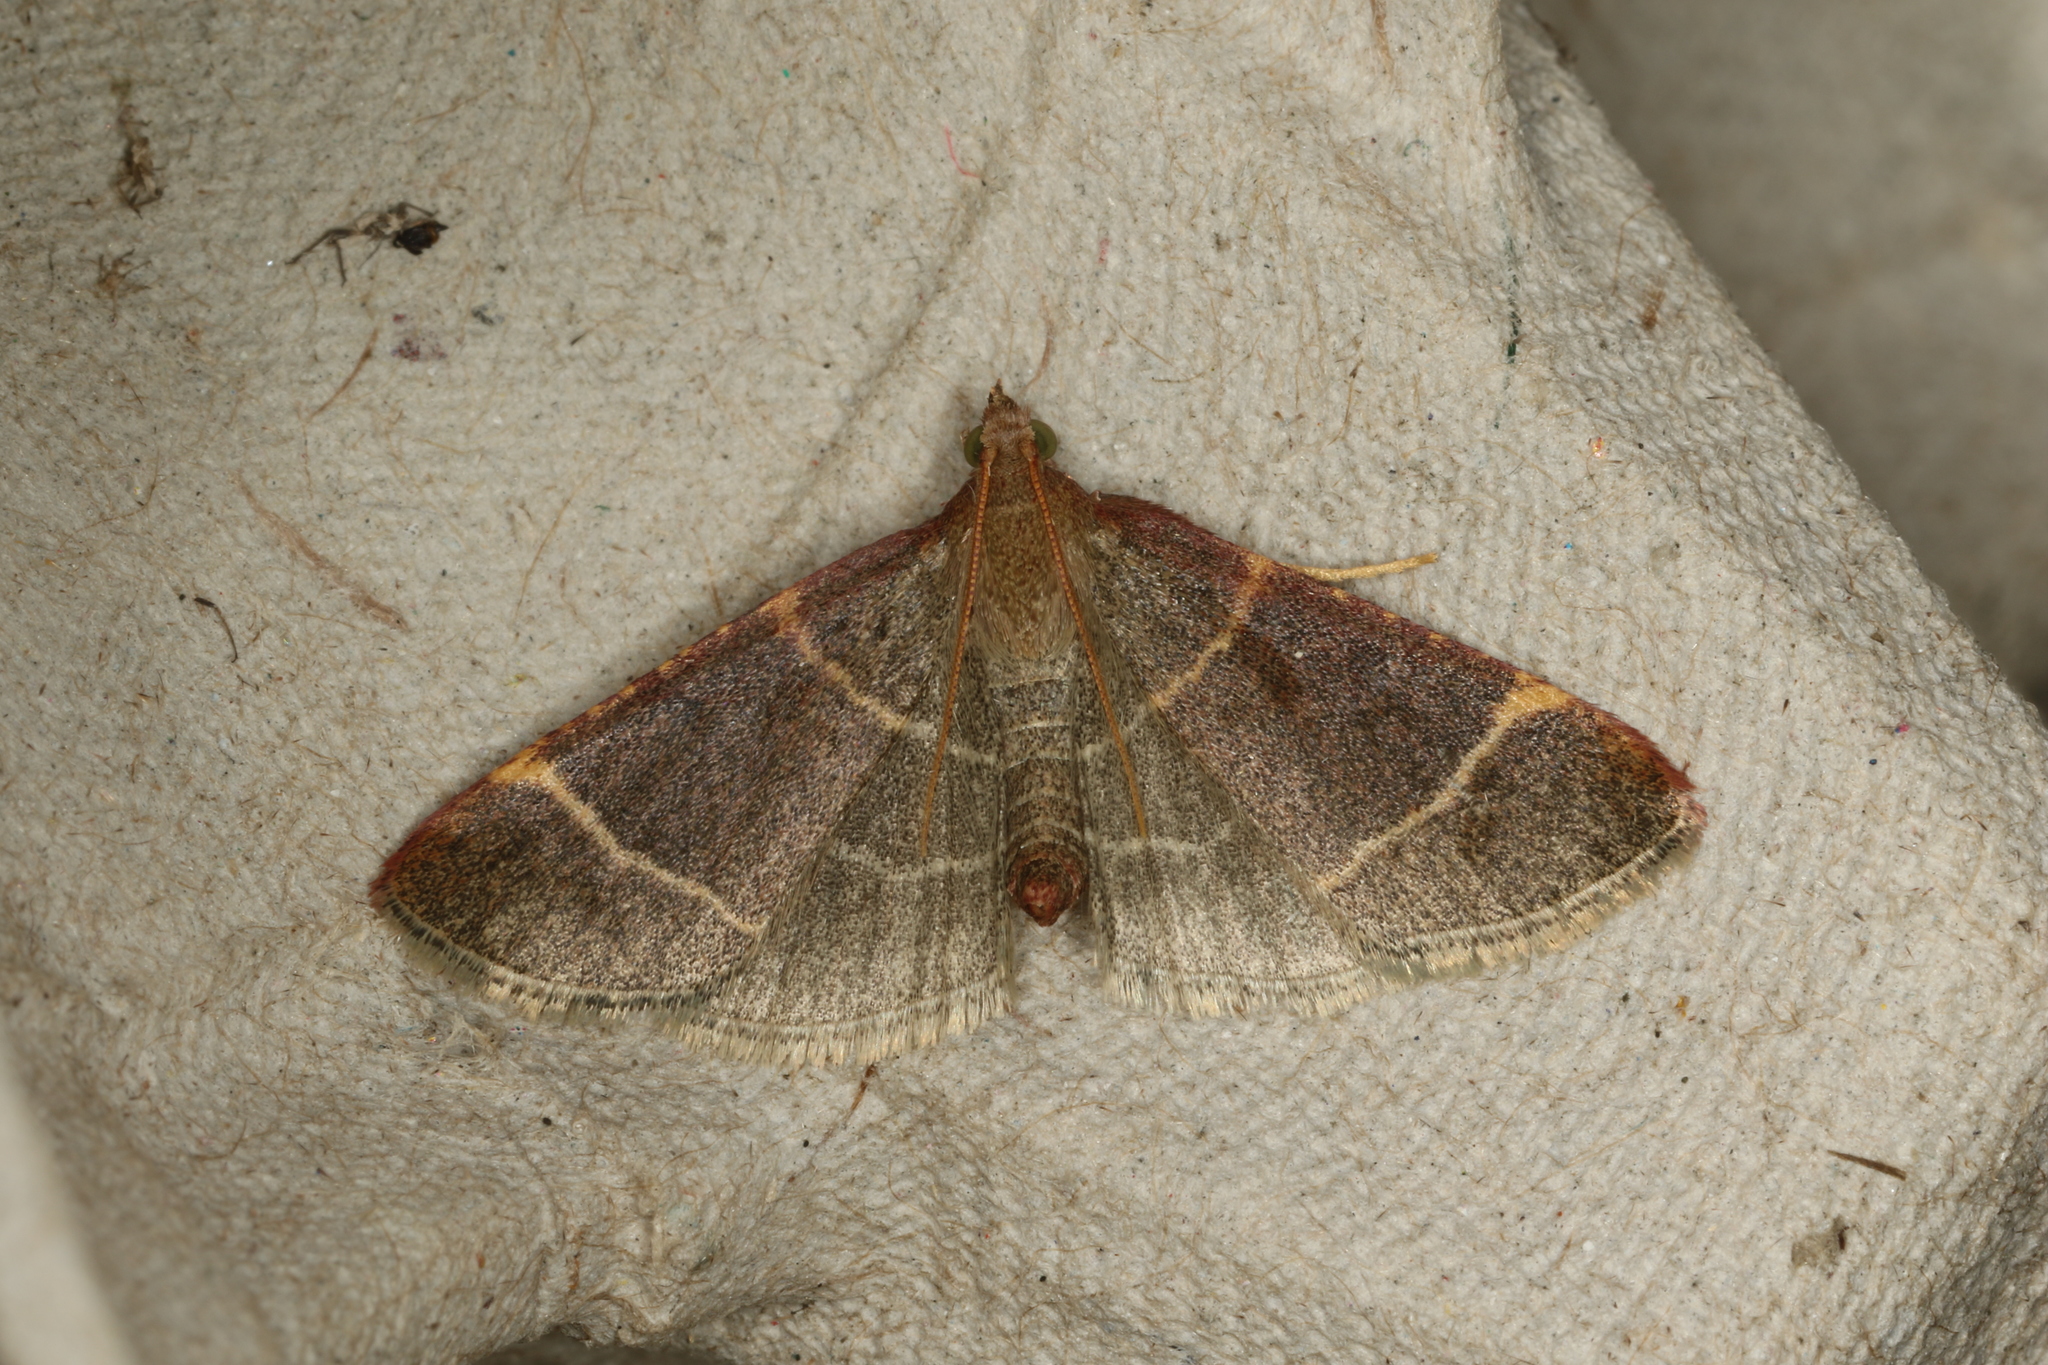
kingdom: Animalia
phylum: Arthropoda
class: Insecta
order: Lepidoptera
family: Pyralidae
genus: Hypsopygia
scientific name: Hypsopygia glaucinalis
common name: Double-striped tabby
